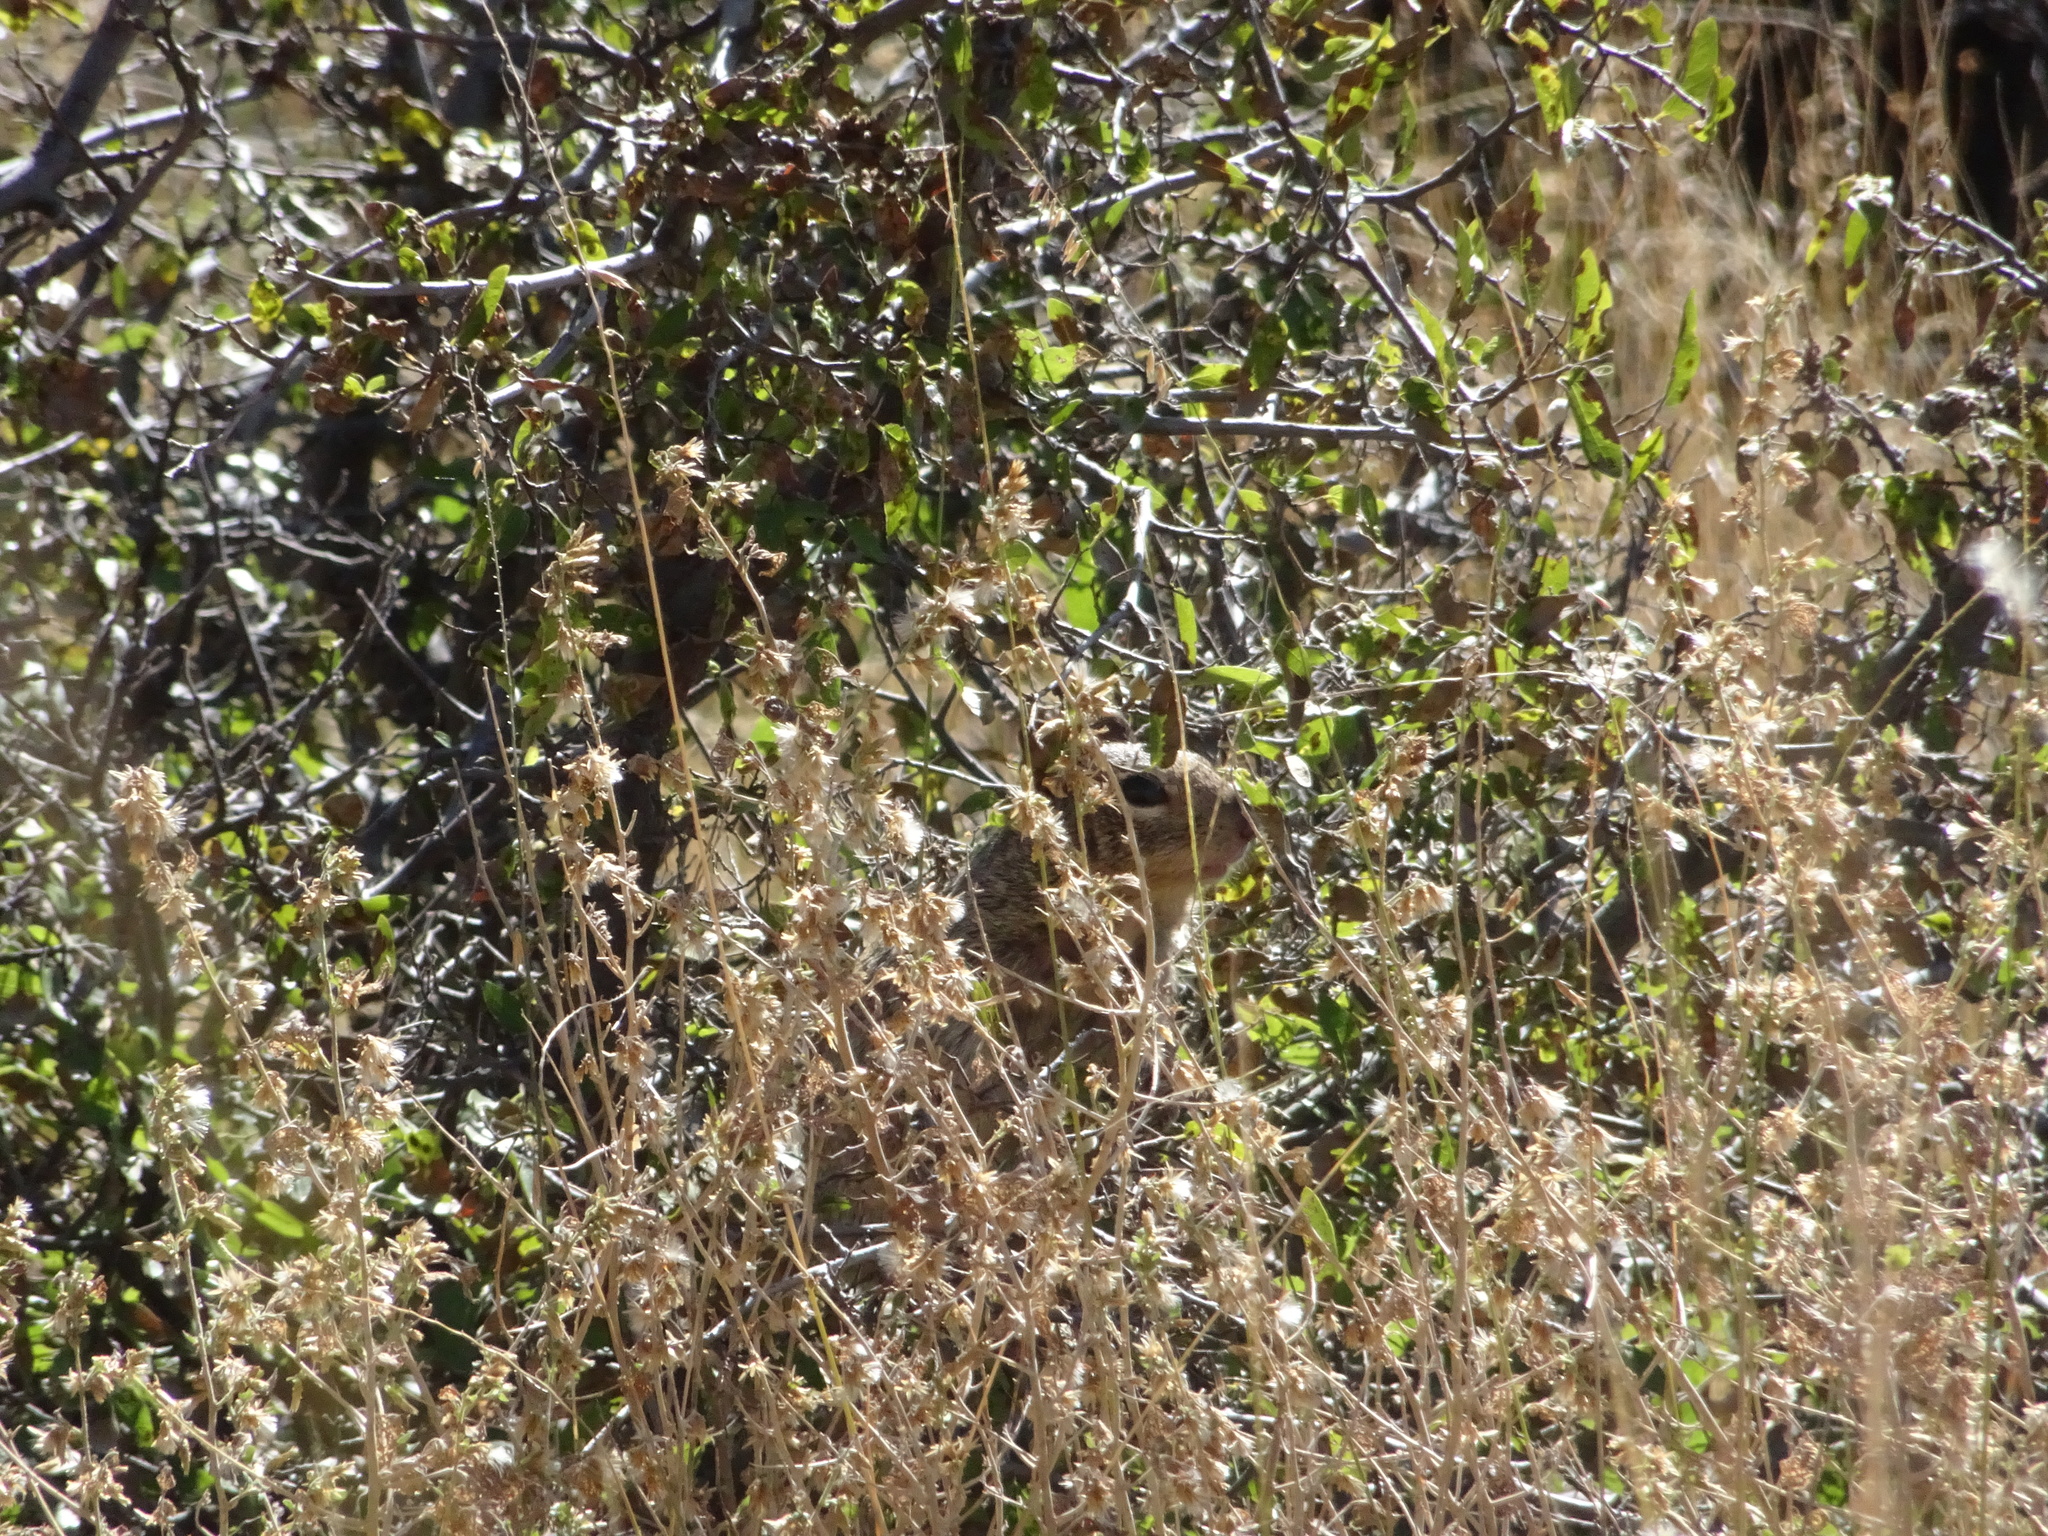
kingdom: Animalia
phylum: Chordata
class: Mammalia
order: Rodentia
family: Sciuridae
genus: Otospermophilus
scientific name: Otospermophilus variegatus
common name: Rock squirrel
